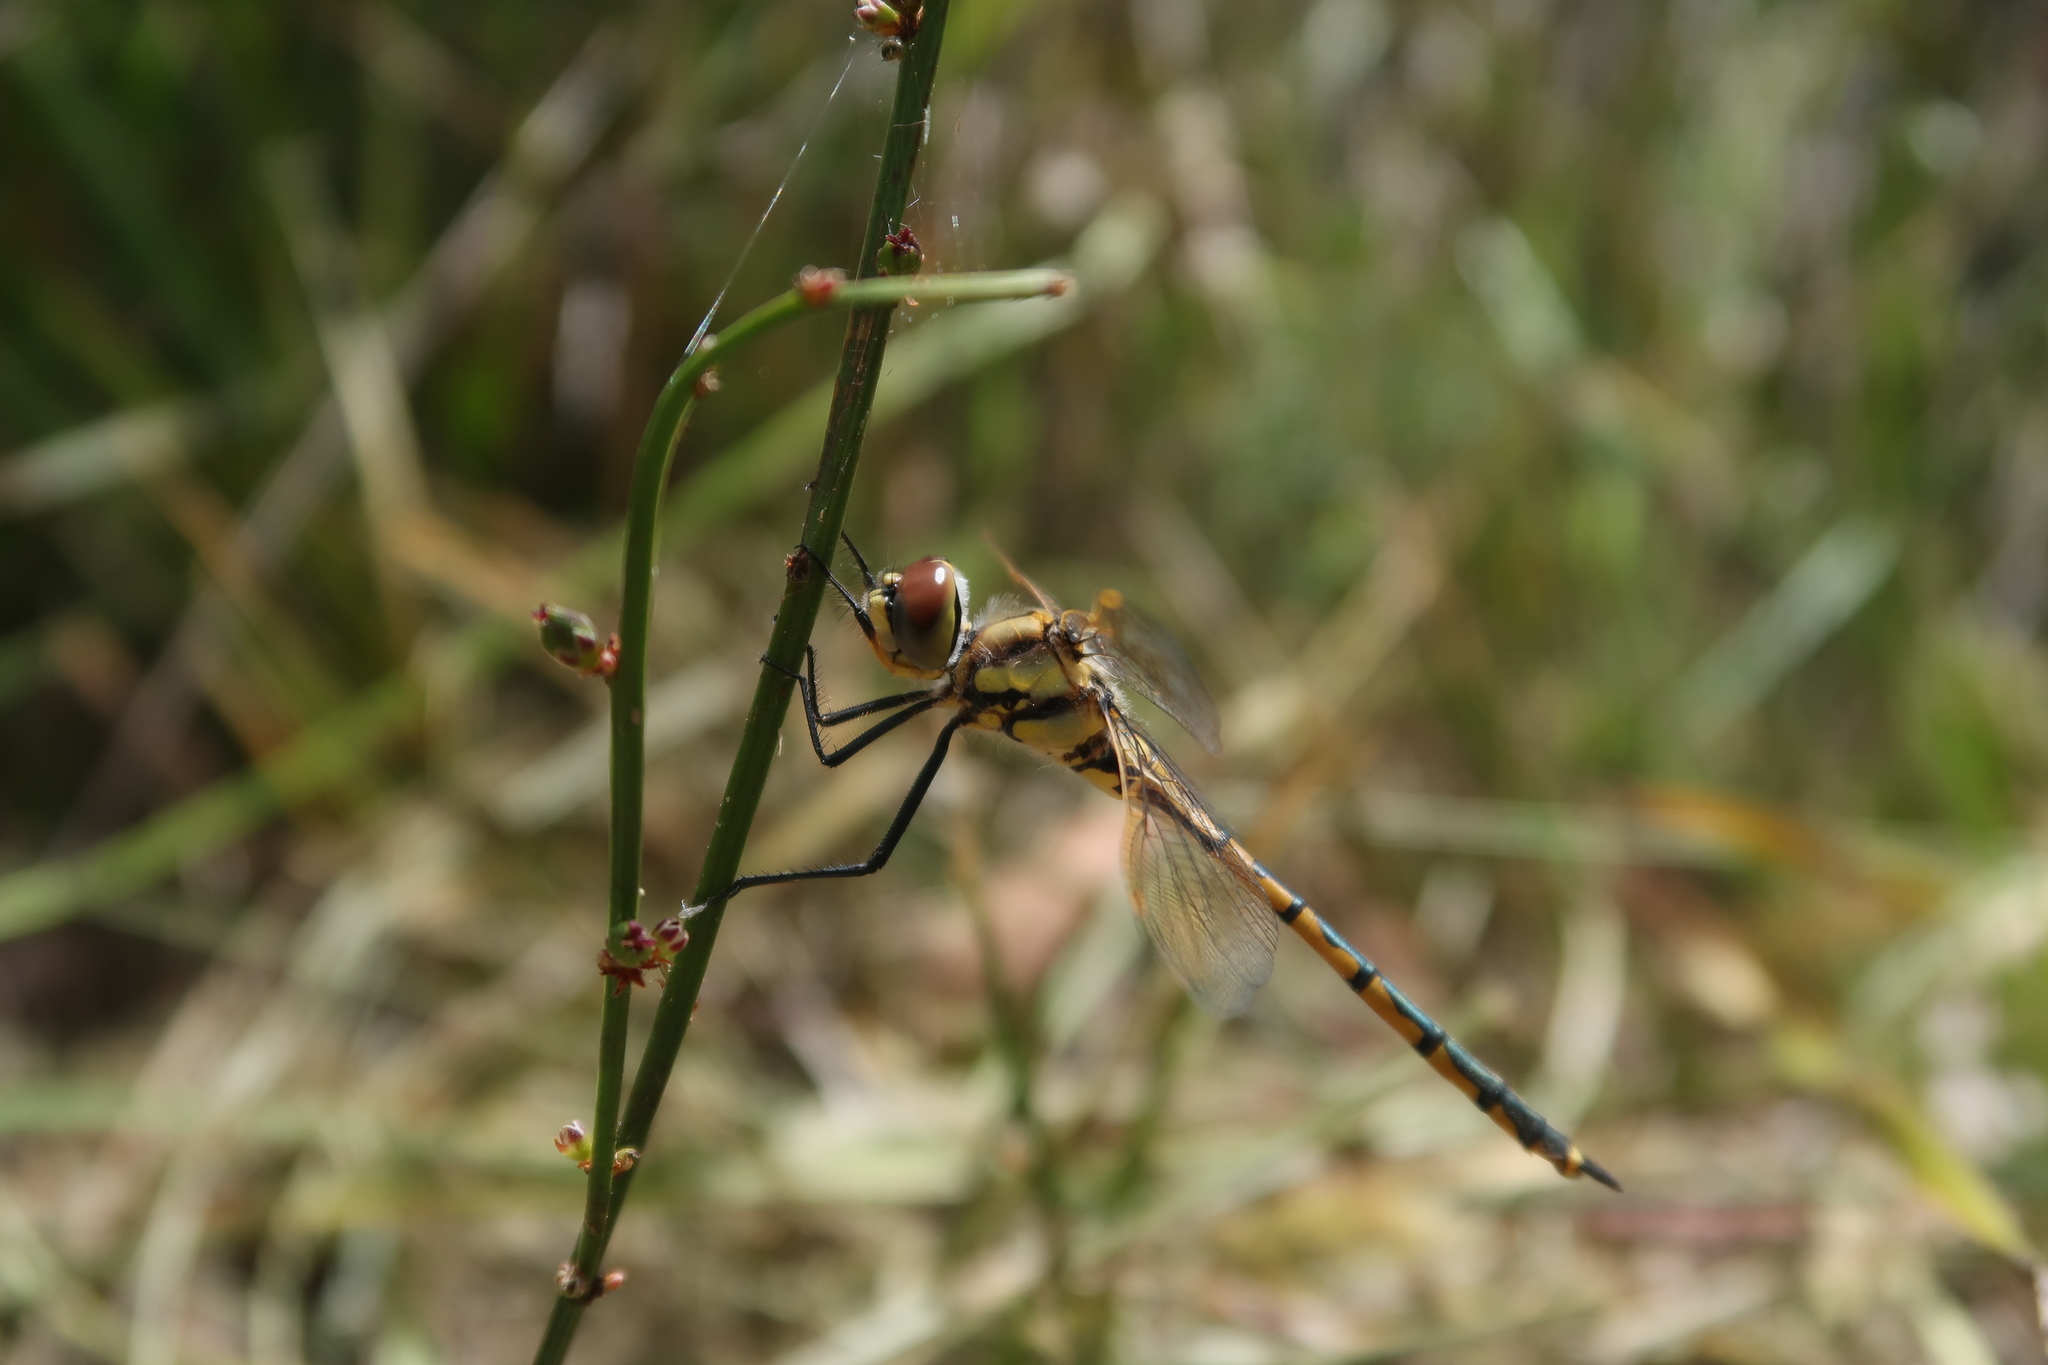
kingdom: Animalia
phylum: Arthropoda
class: Insecta
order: Odonata
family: Corduliidae
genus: Hemicordulia
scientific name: Hemicordulia tau
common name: Tau emerald
